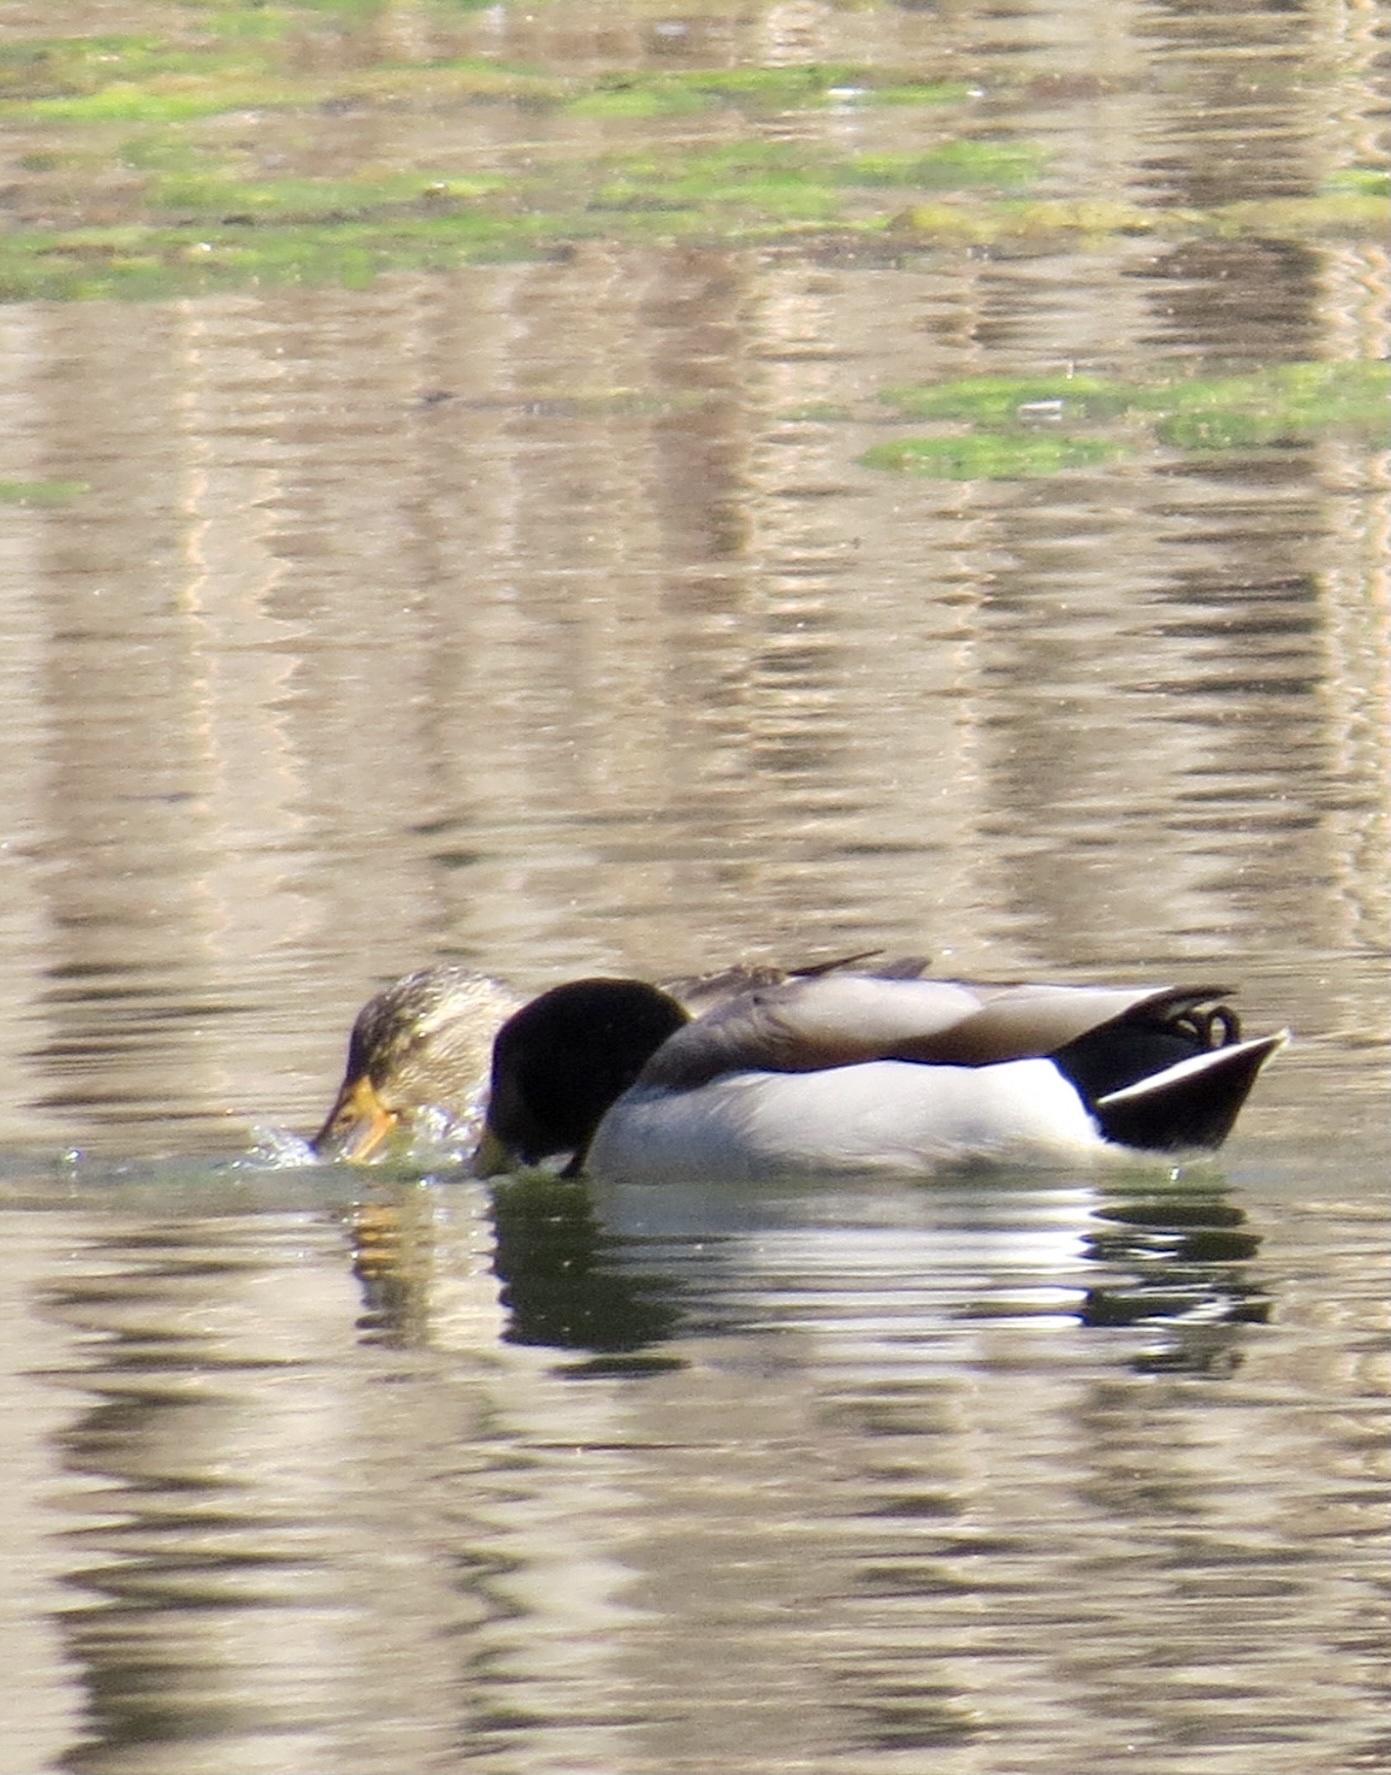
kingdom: Animalia
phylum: Chordata
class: Aves
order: Anseriformes
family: Anatidae
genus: Anas
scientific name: Anas platyrhynchos
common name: Mallard
